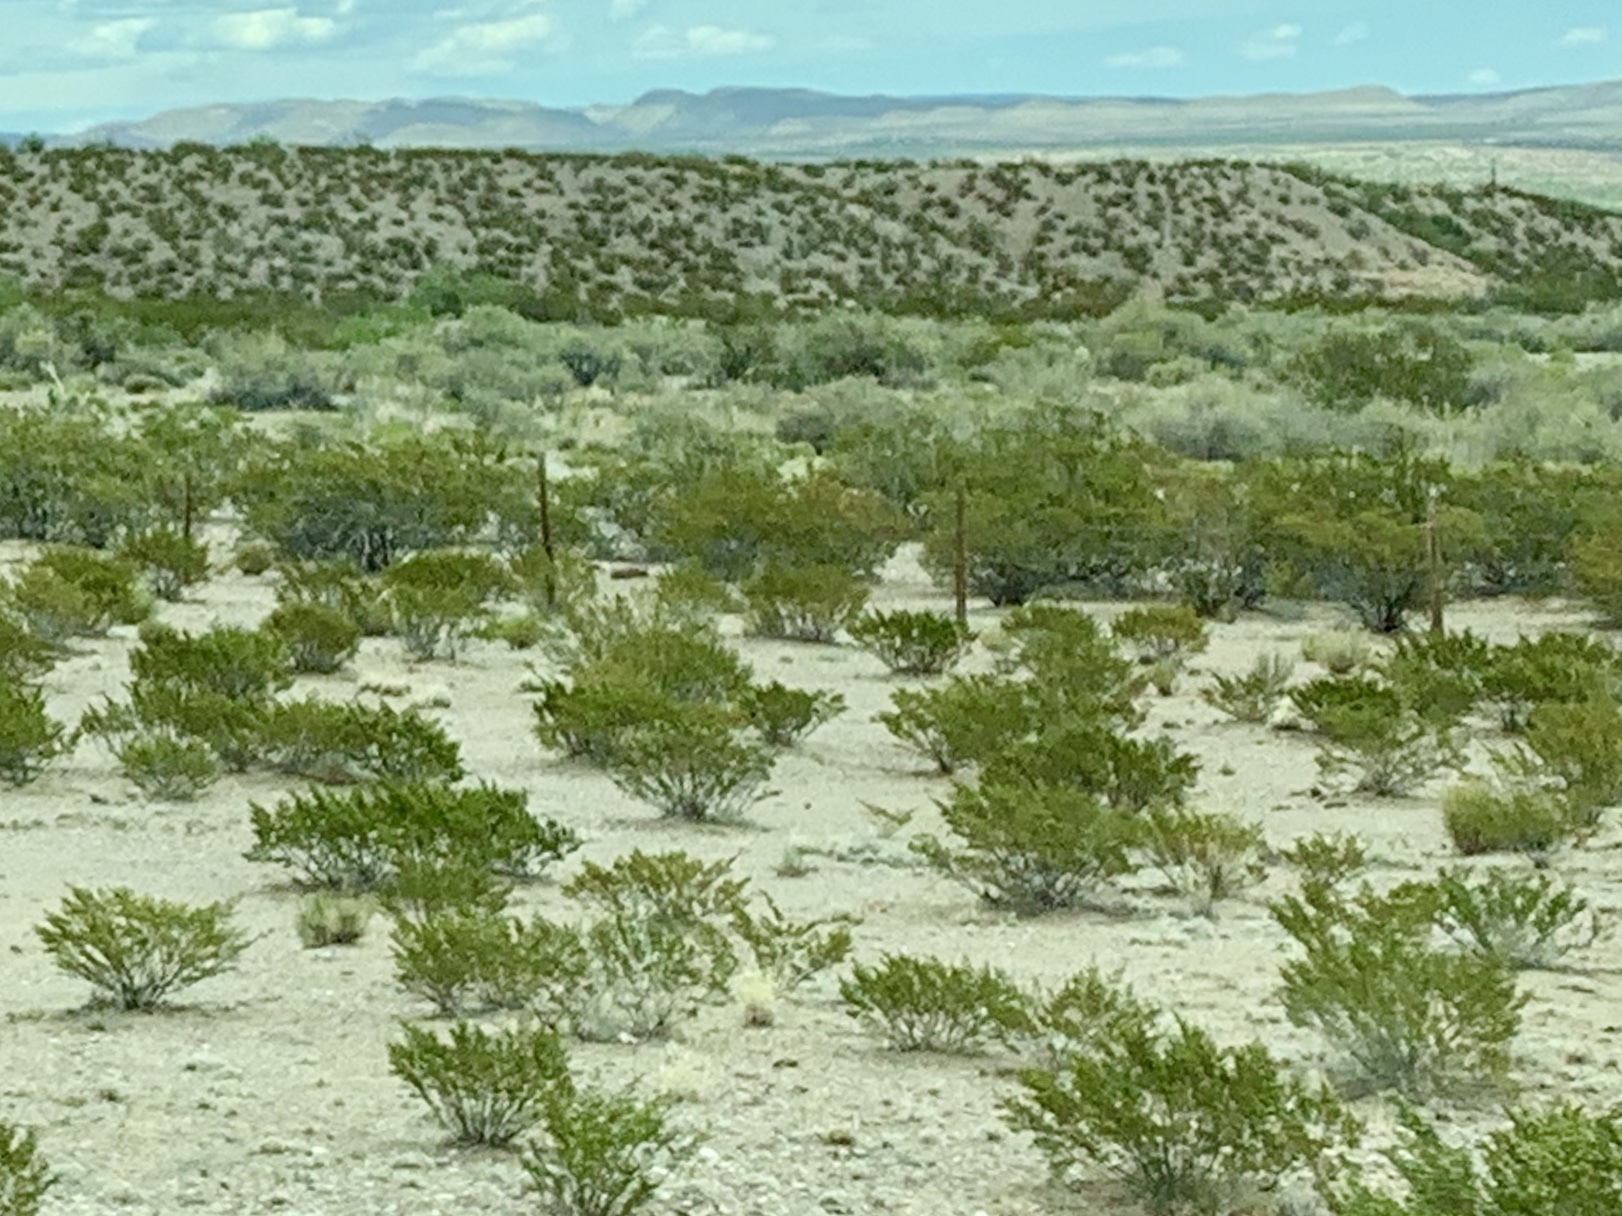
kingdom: Plantae
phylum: Tracheophyta
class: Magnoliopsida
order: Zygophyllales
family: Zygophyllaceae
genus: Larrea
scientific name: Larrea tridentata
